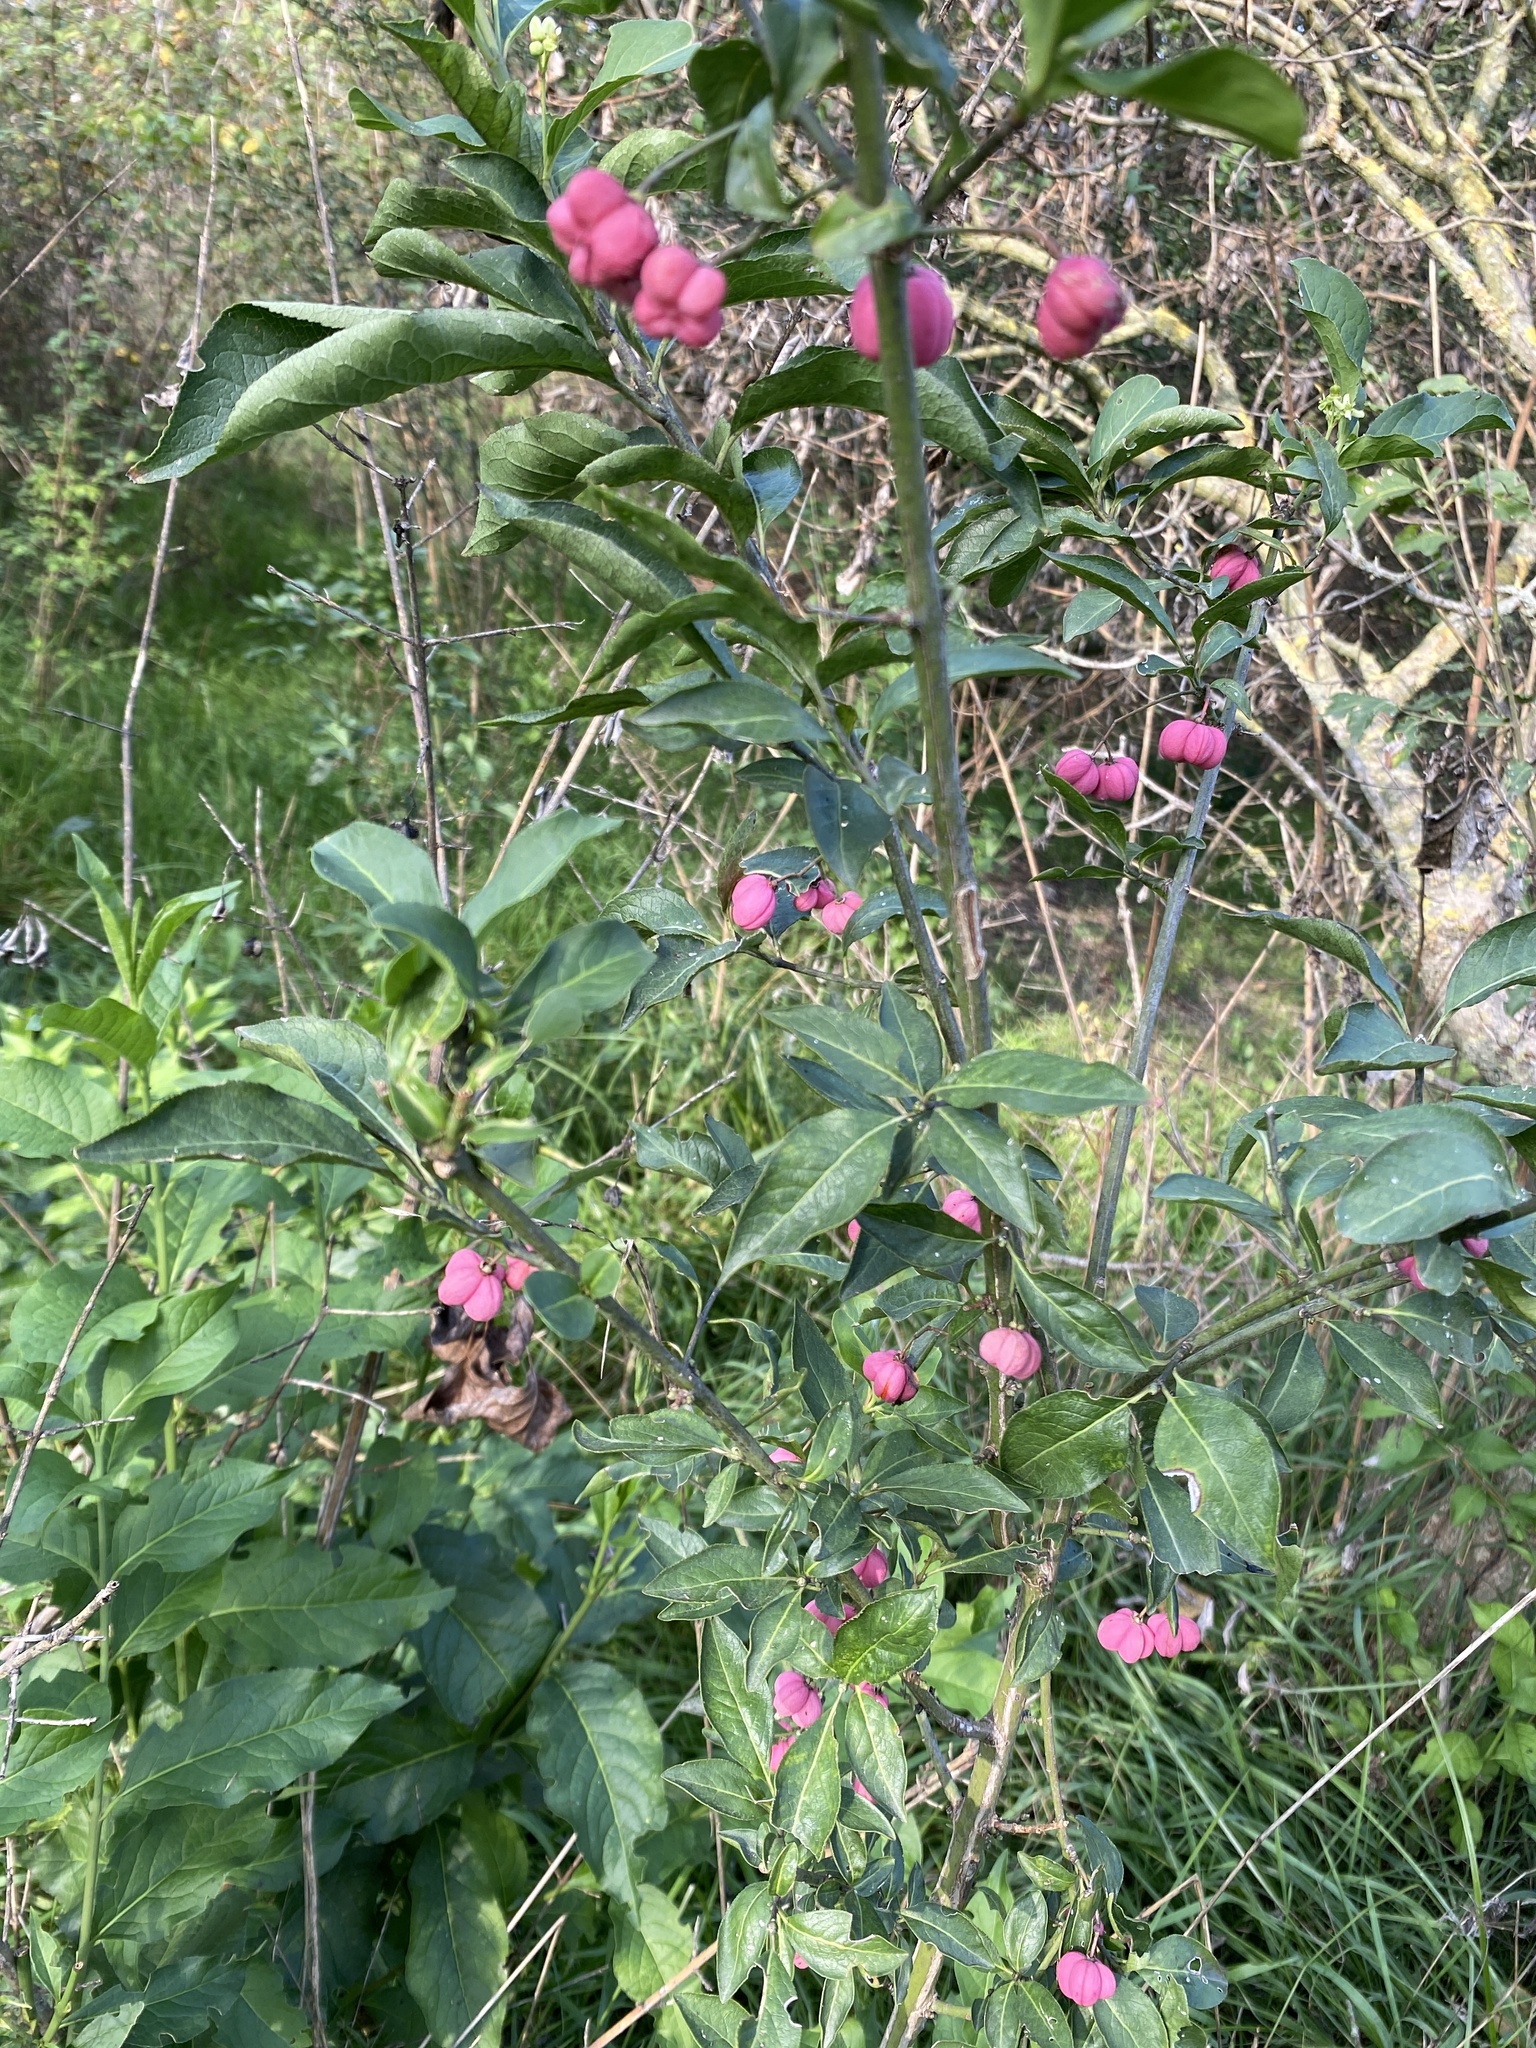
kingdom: Plantae
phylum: Tracheophyta
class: Magnoliopsida
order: Celastrales
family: Celastraceae
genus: Euonymus
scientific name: Euonymus europaeus
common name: Spindle
